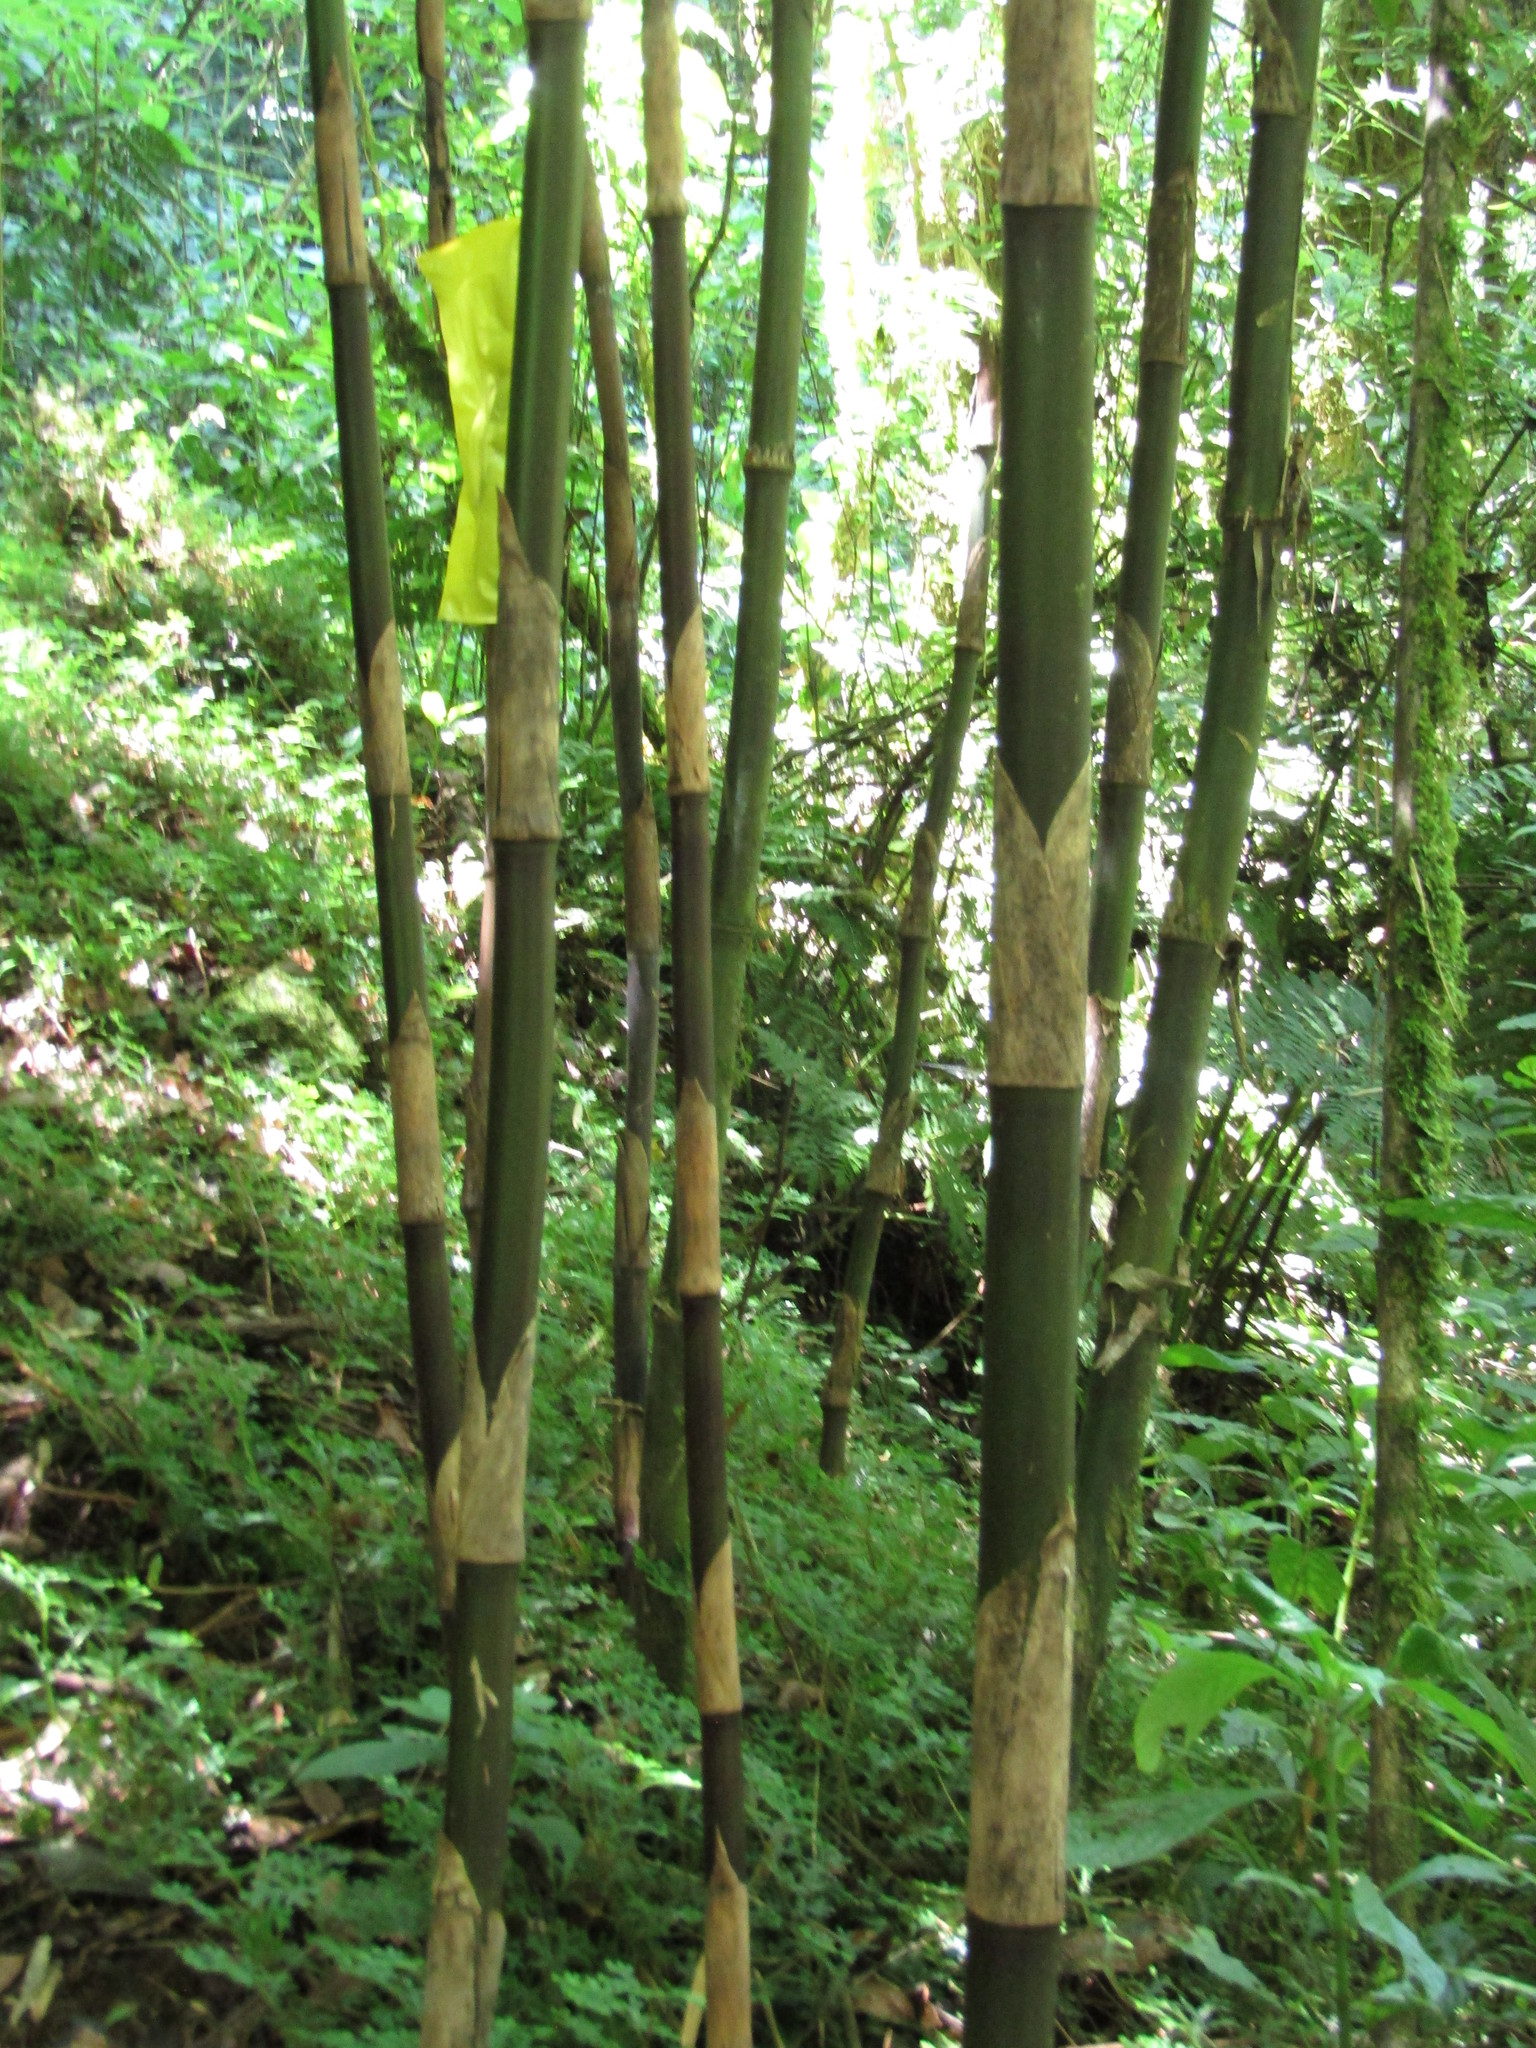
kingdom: Plantae
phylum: Tracheophyta
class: Liliopsida
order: Poales
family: Poaceae
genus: Chusquea
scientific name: Chusquea perotensis
